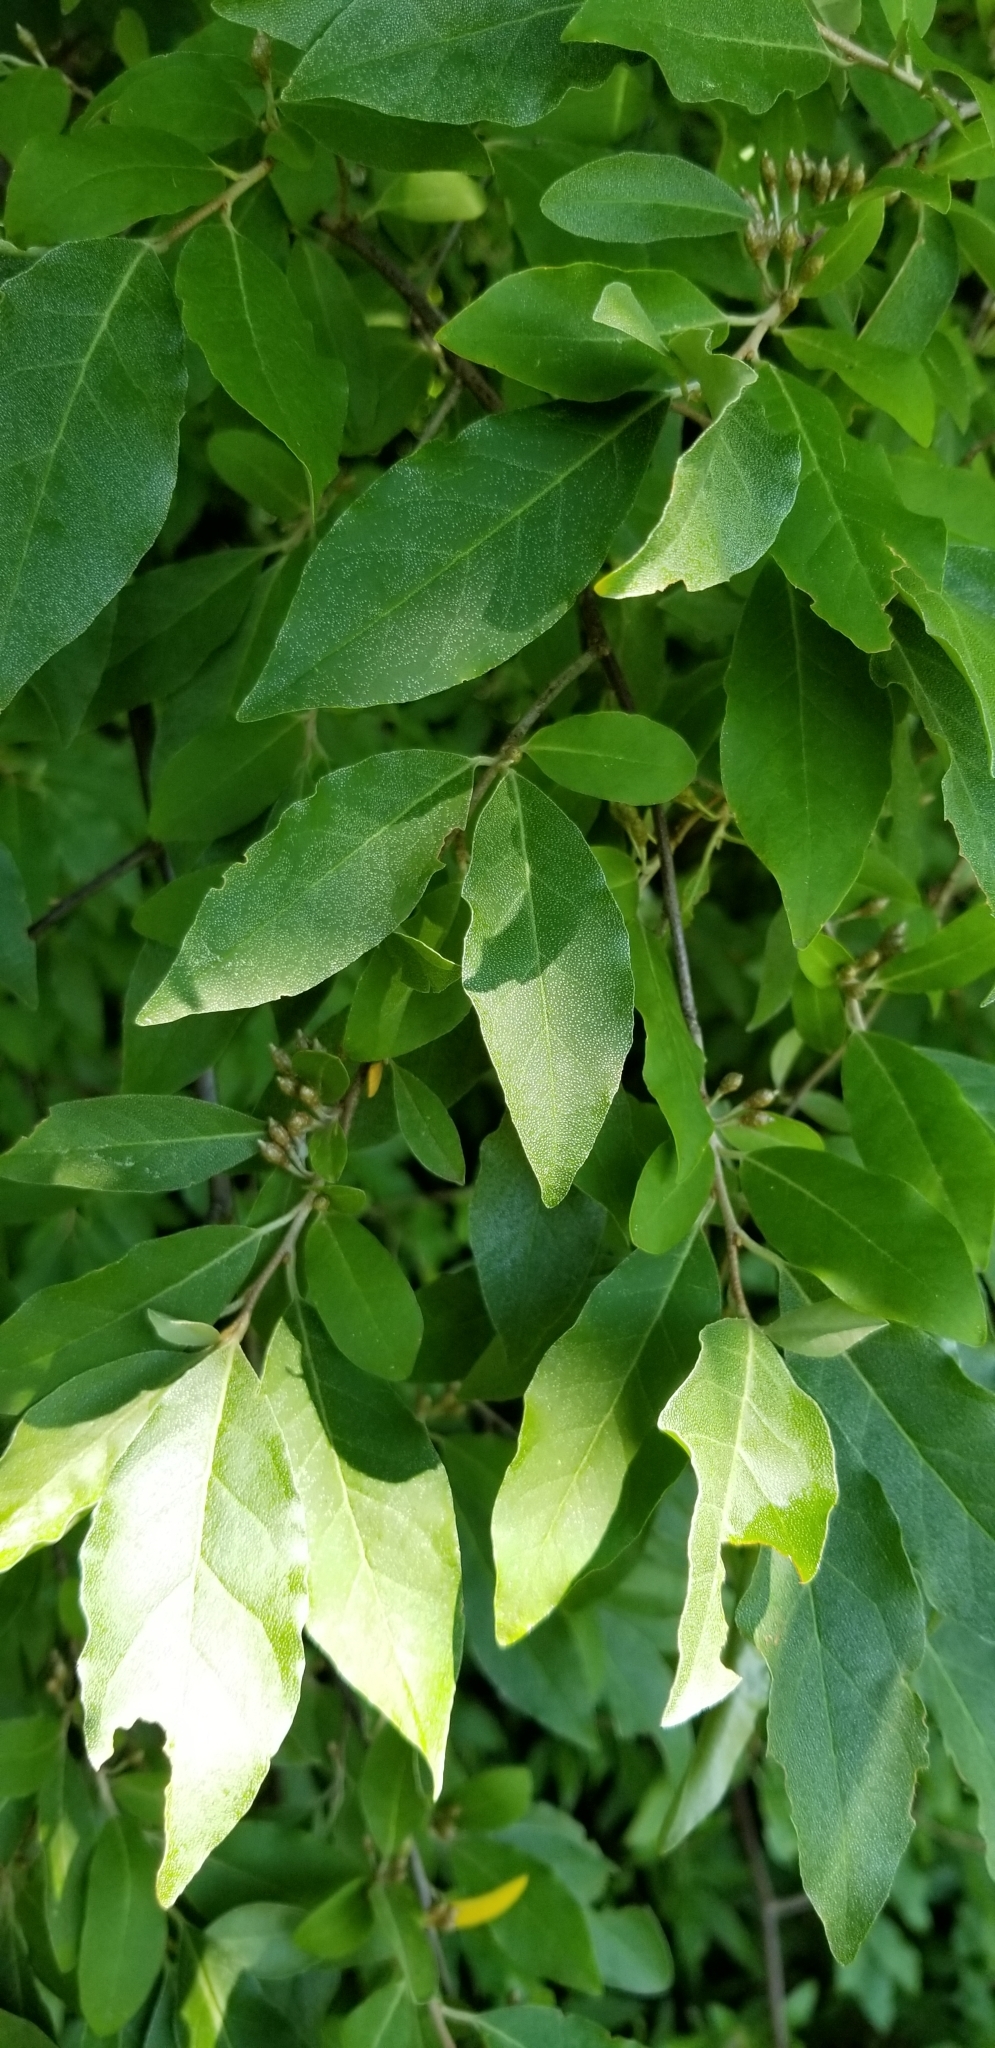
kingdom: Plantae
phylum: Tracheophyta
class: Magnoliopsida
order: Rosales
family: Elaeagnaceae
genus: Elaeagnus
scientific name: Elaeagnus umbellata
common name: Autumn olive
